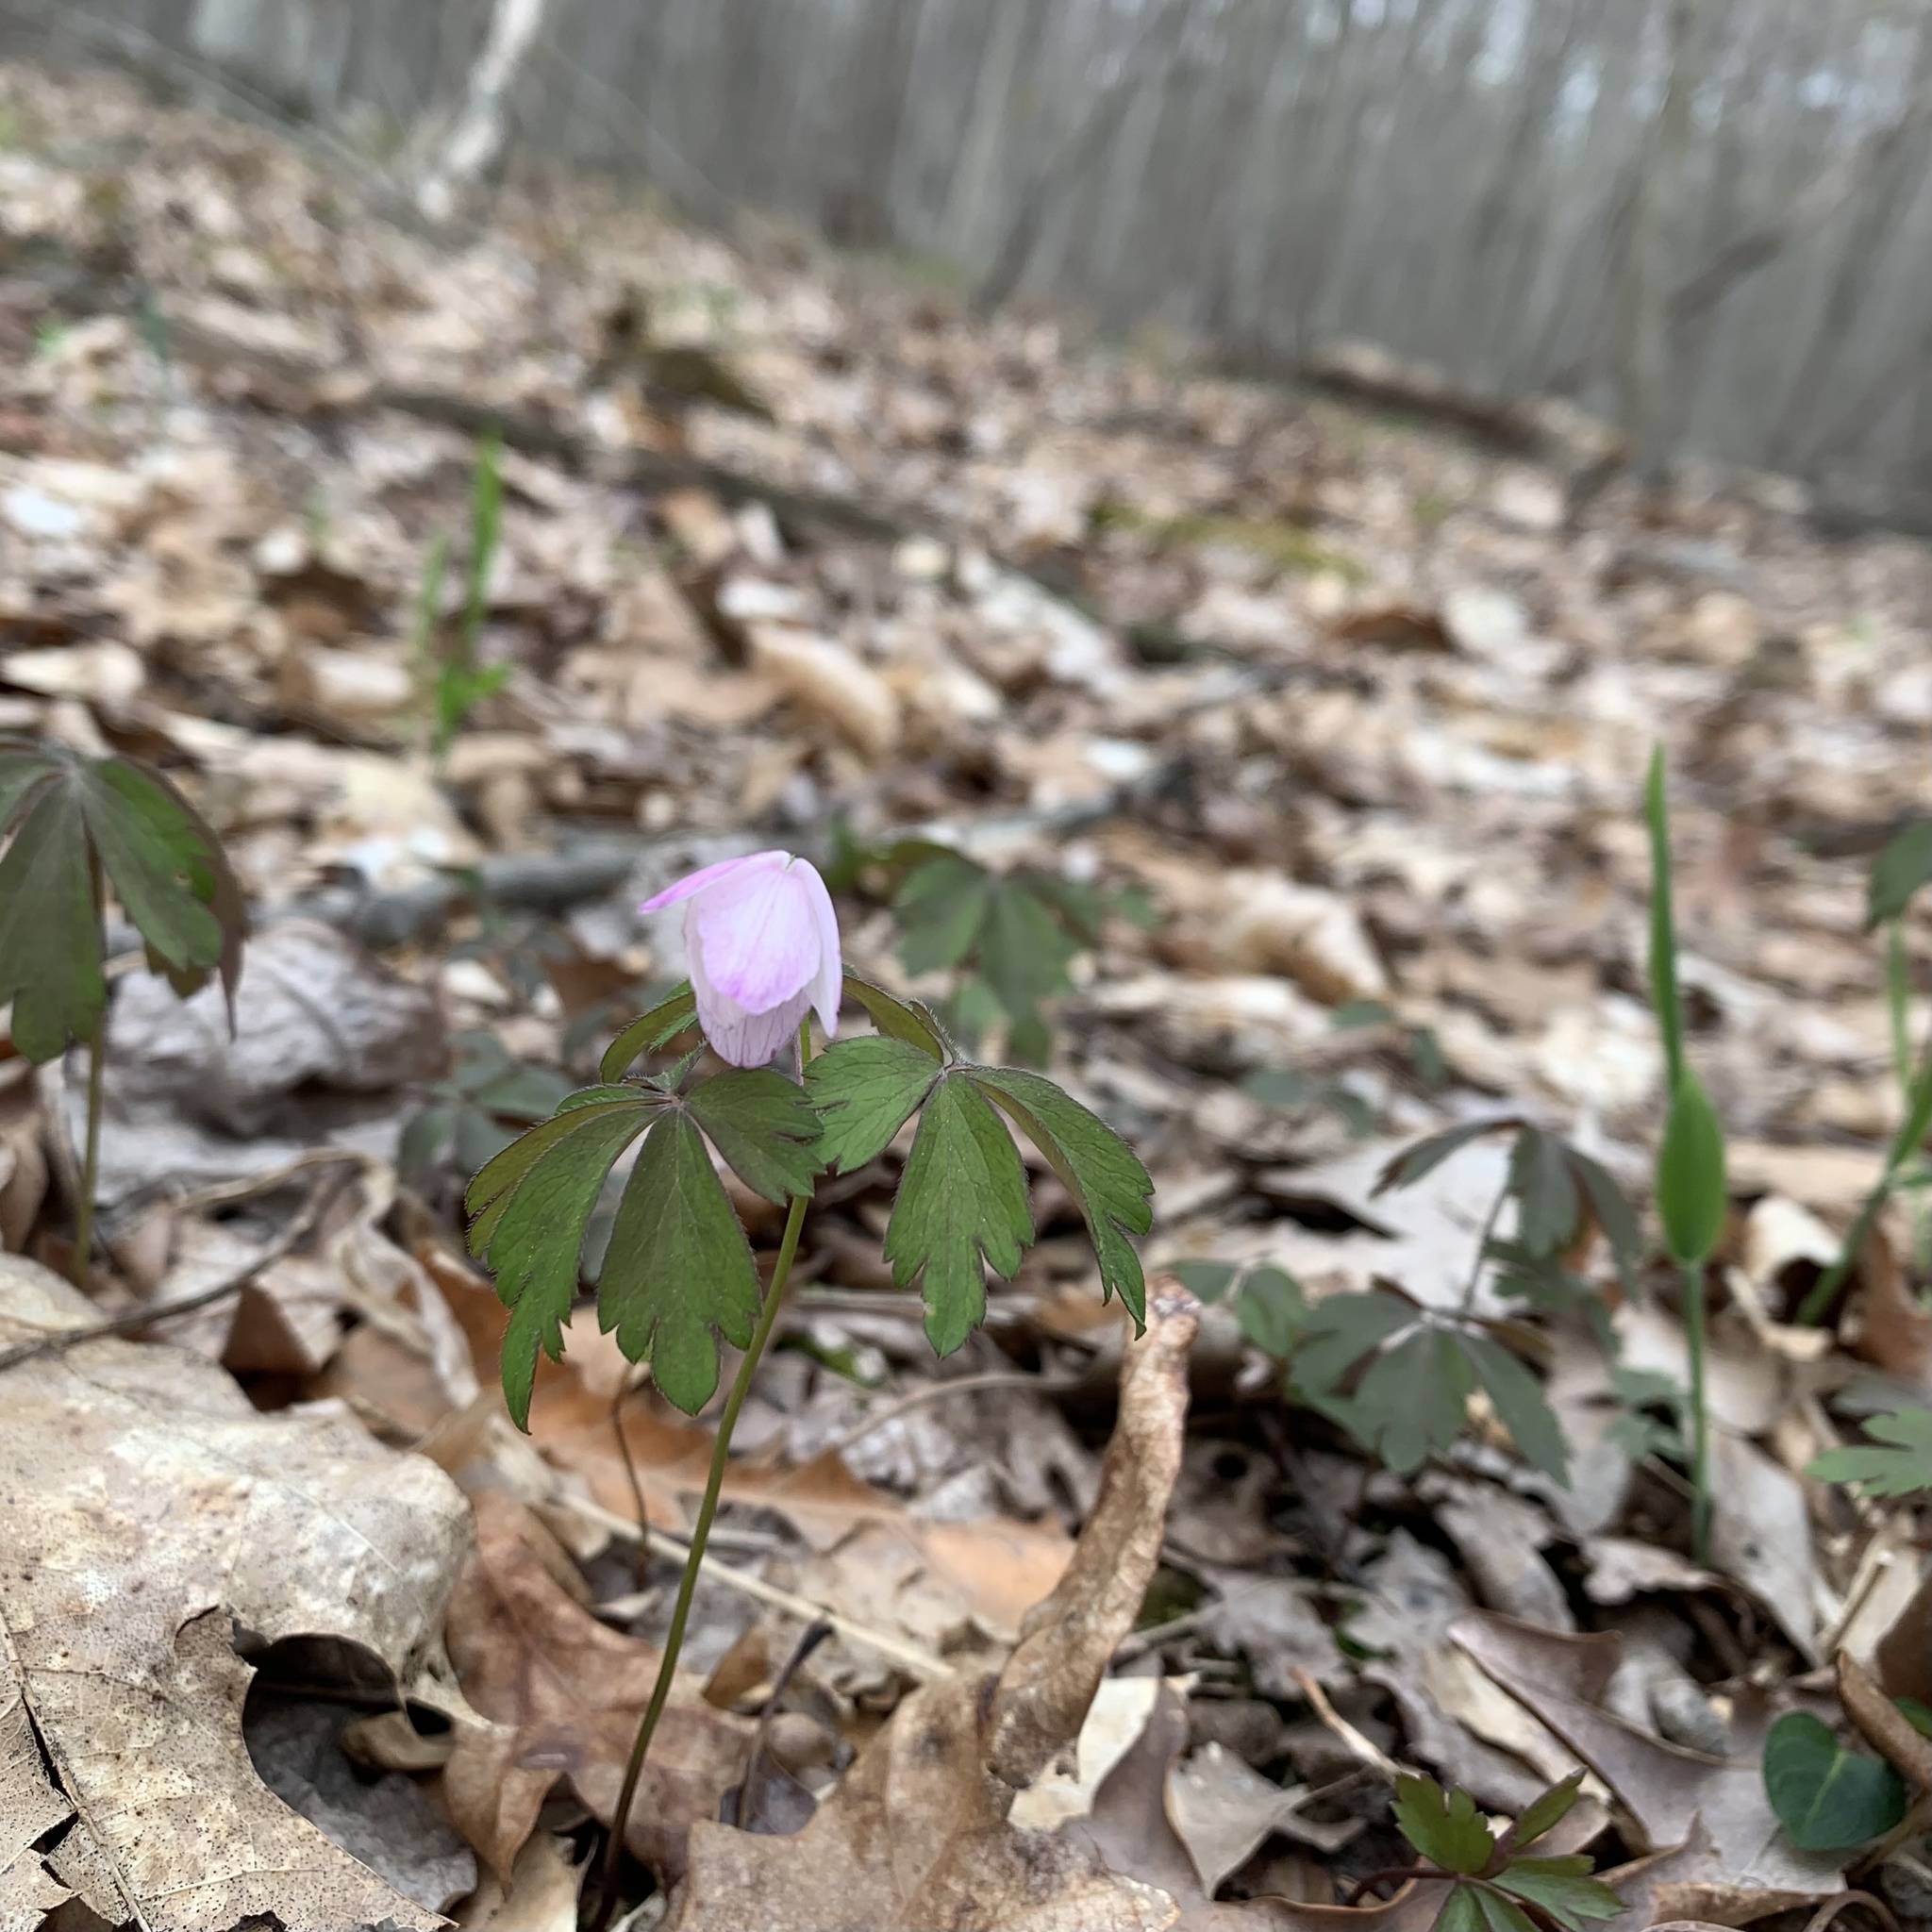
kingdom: Plantae
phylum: Tracheophyta
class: Magnoliopsida
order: Ranunculales
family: Ranunculaceae
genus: Anemone
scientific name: Anemone quinquefolia
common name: Wood anemone
